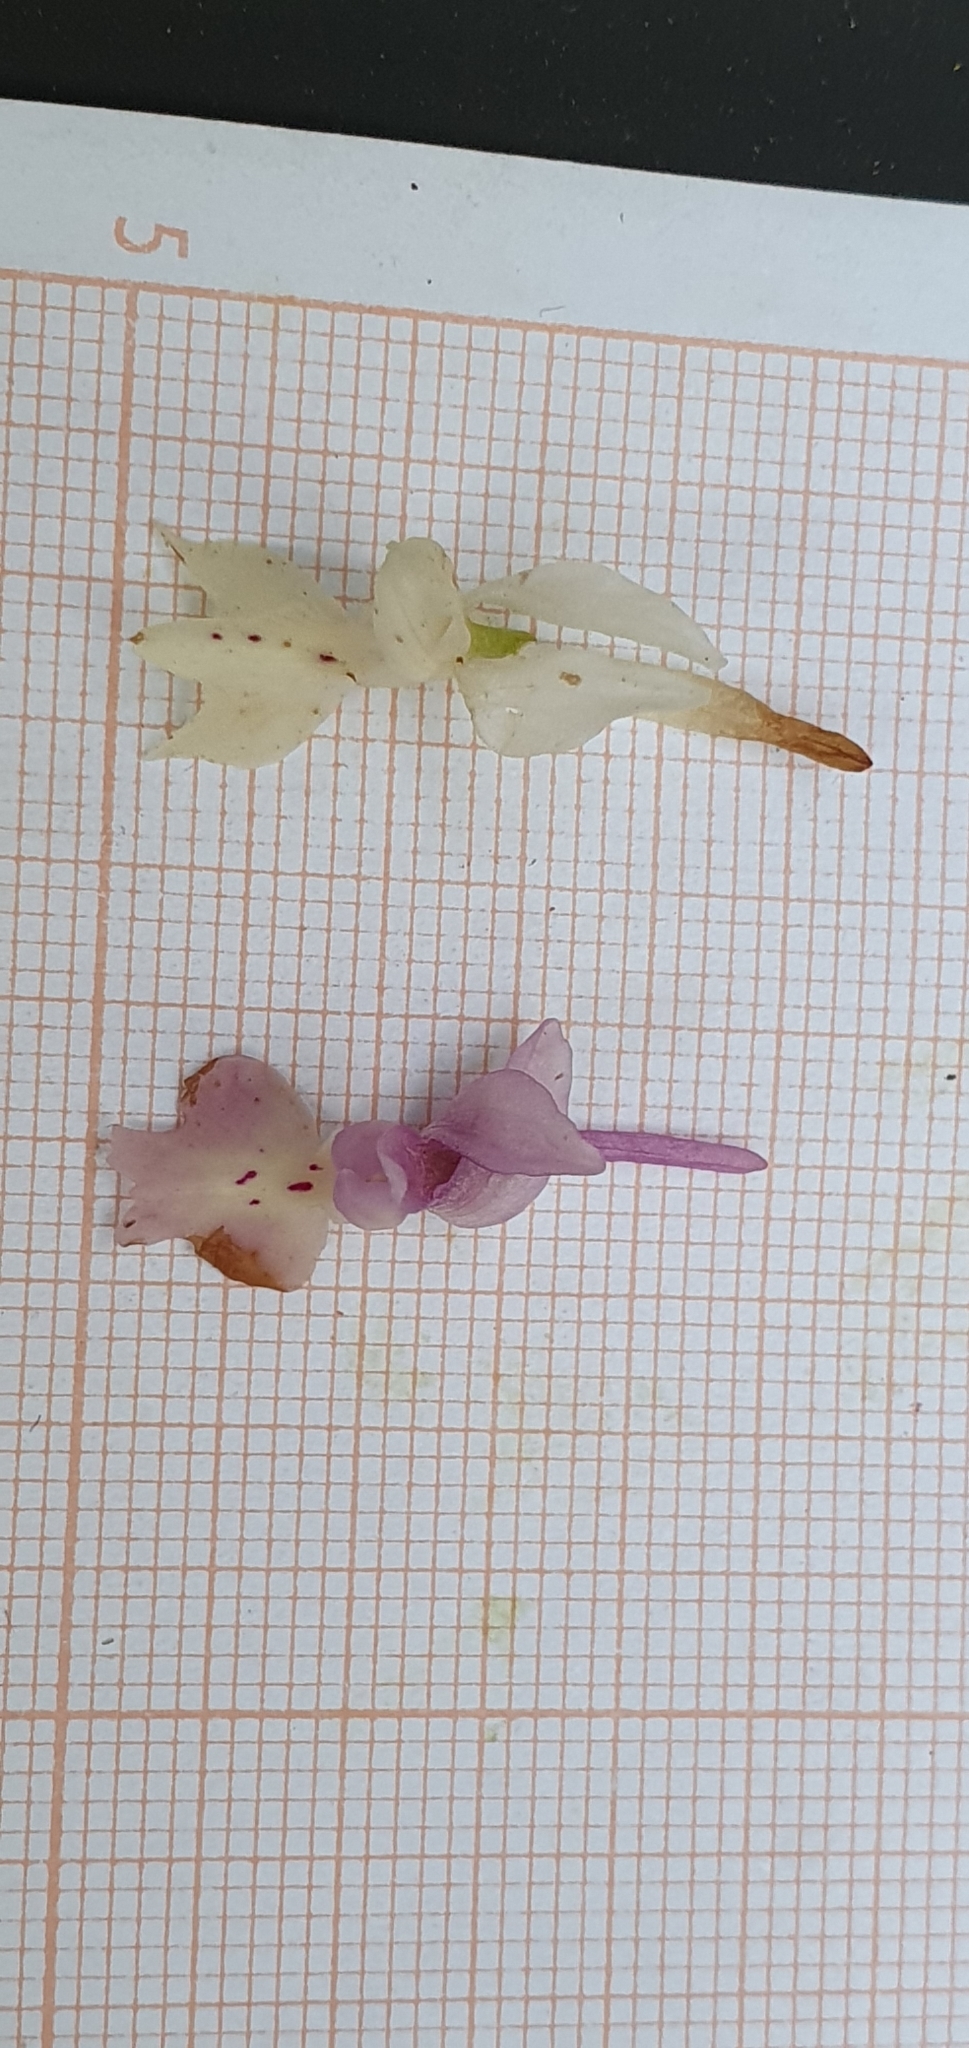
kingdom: Plantae
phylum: Tracheophyta
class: Liliopsida
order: Asparagales
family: Orchidaceae
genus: Orchis
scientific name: Orchis laeta
